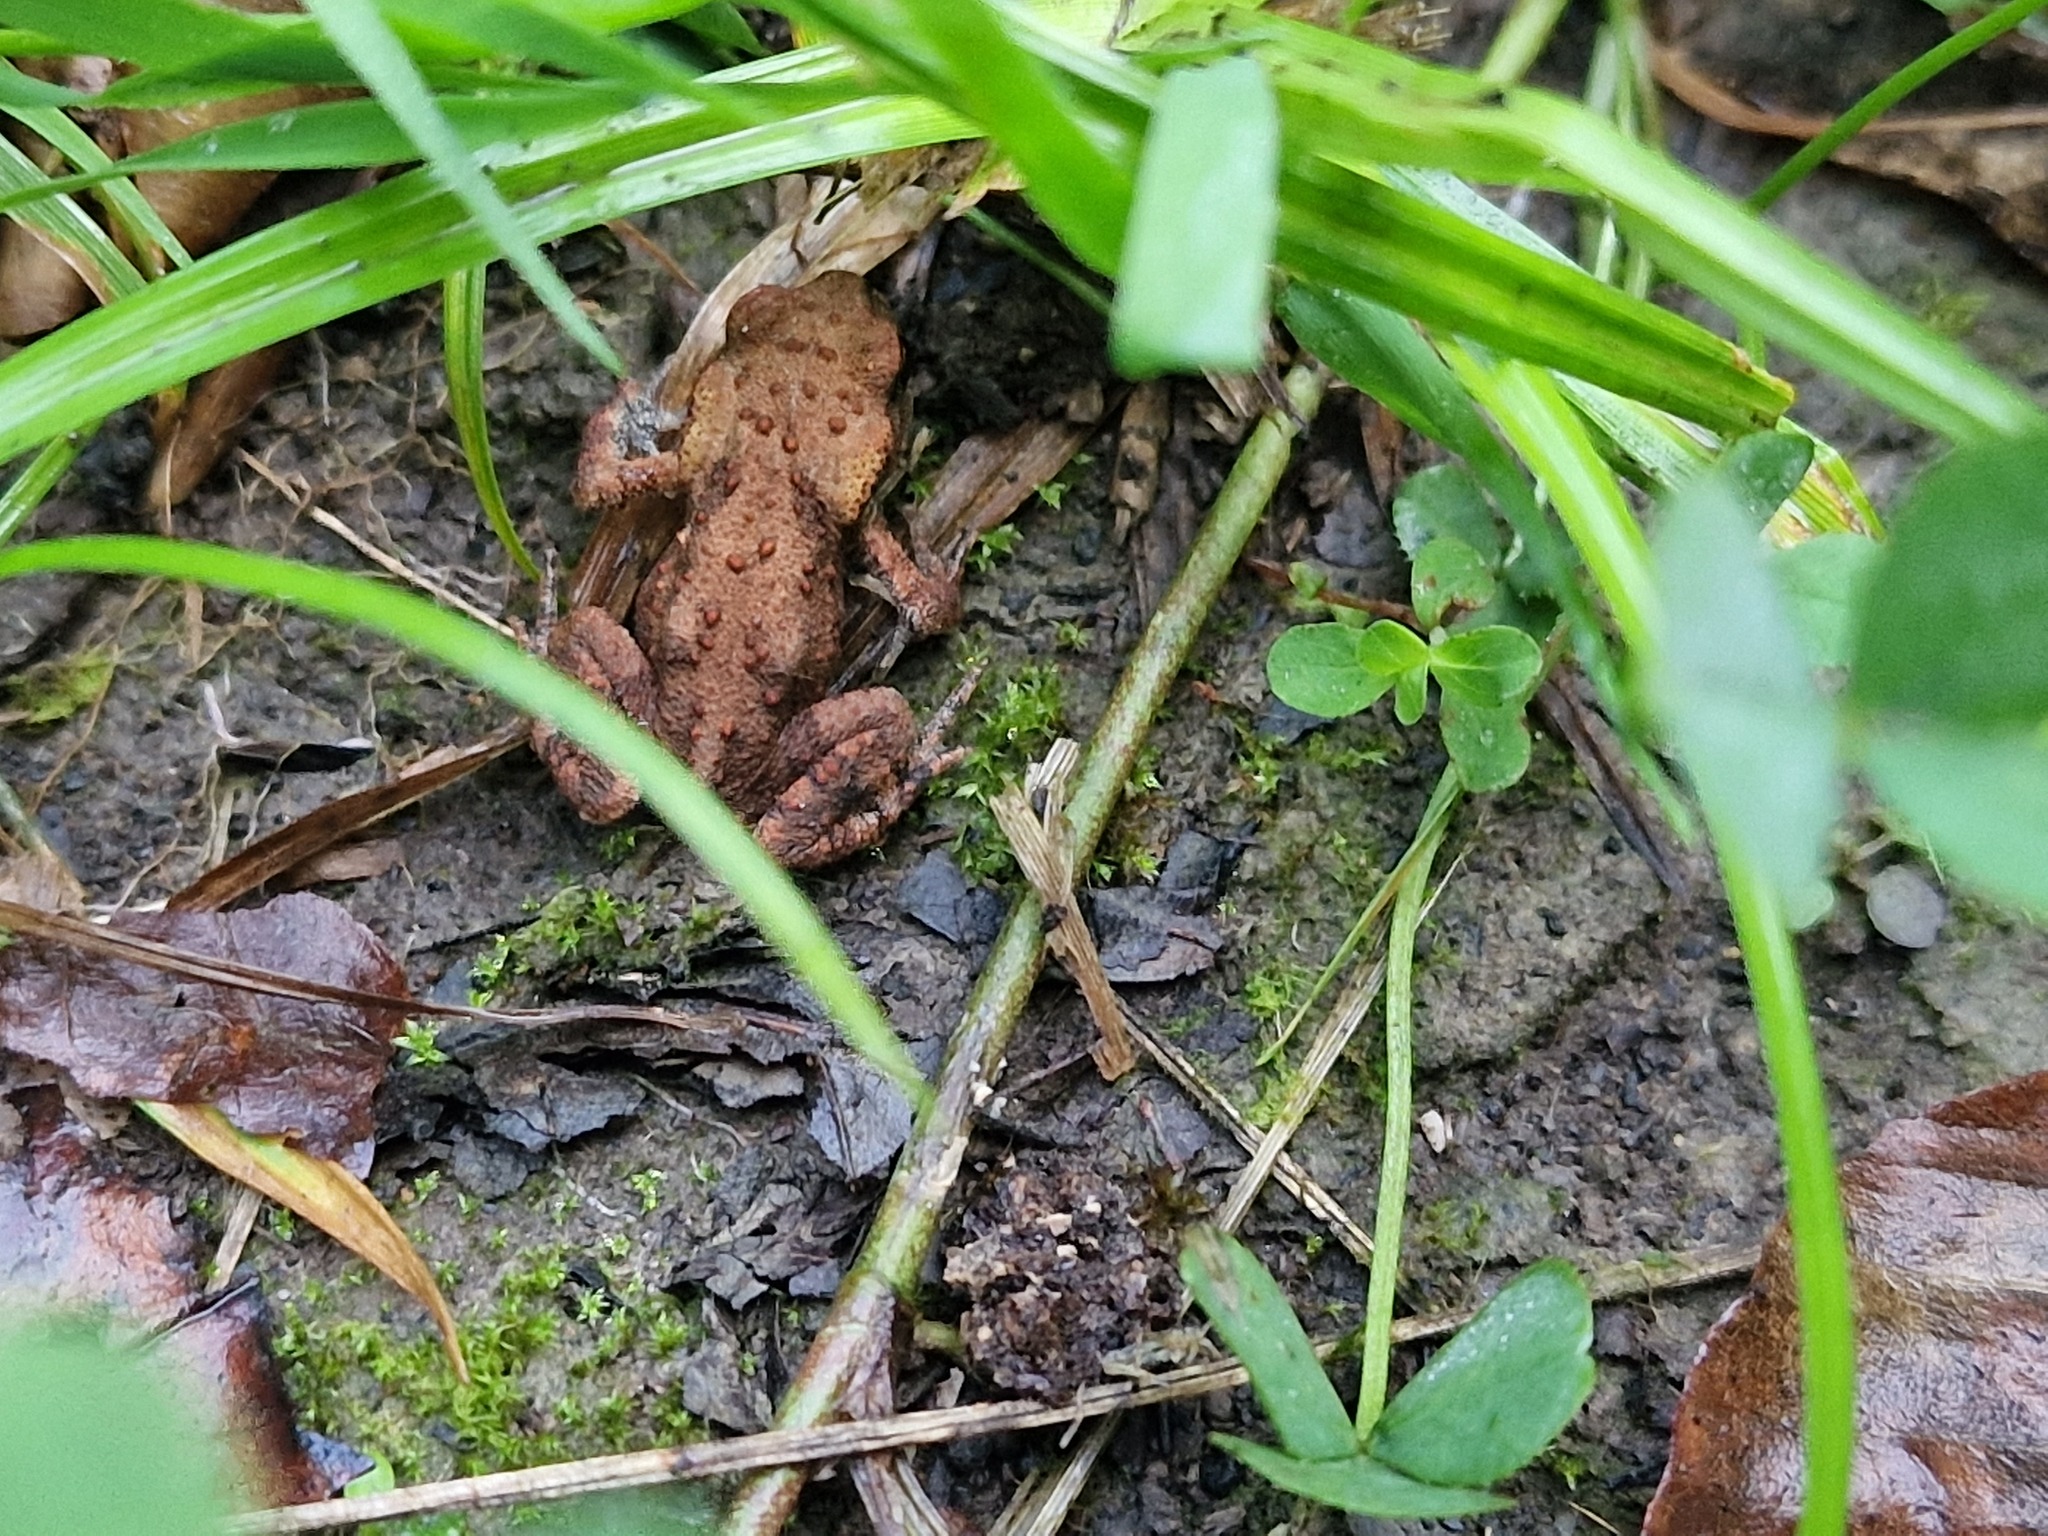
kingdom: Animalia
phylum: Chordata
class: Amphibia
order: Anura
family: Bufonidae
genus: Bufo
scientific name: Bufo bufo
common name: Common toad
